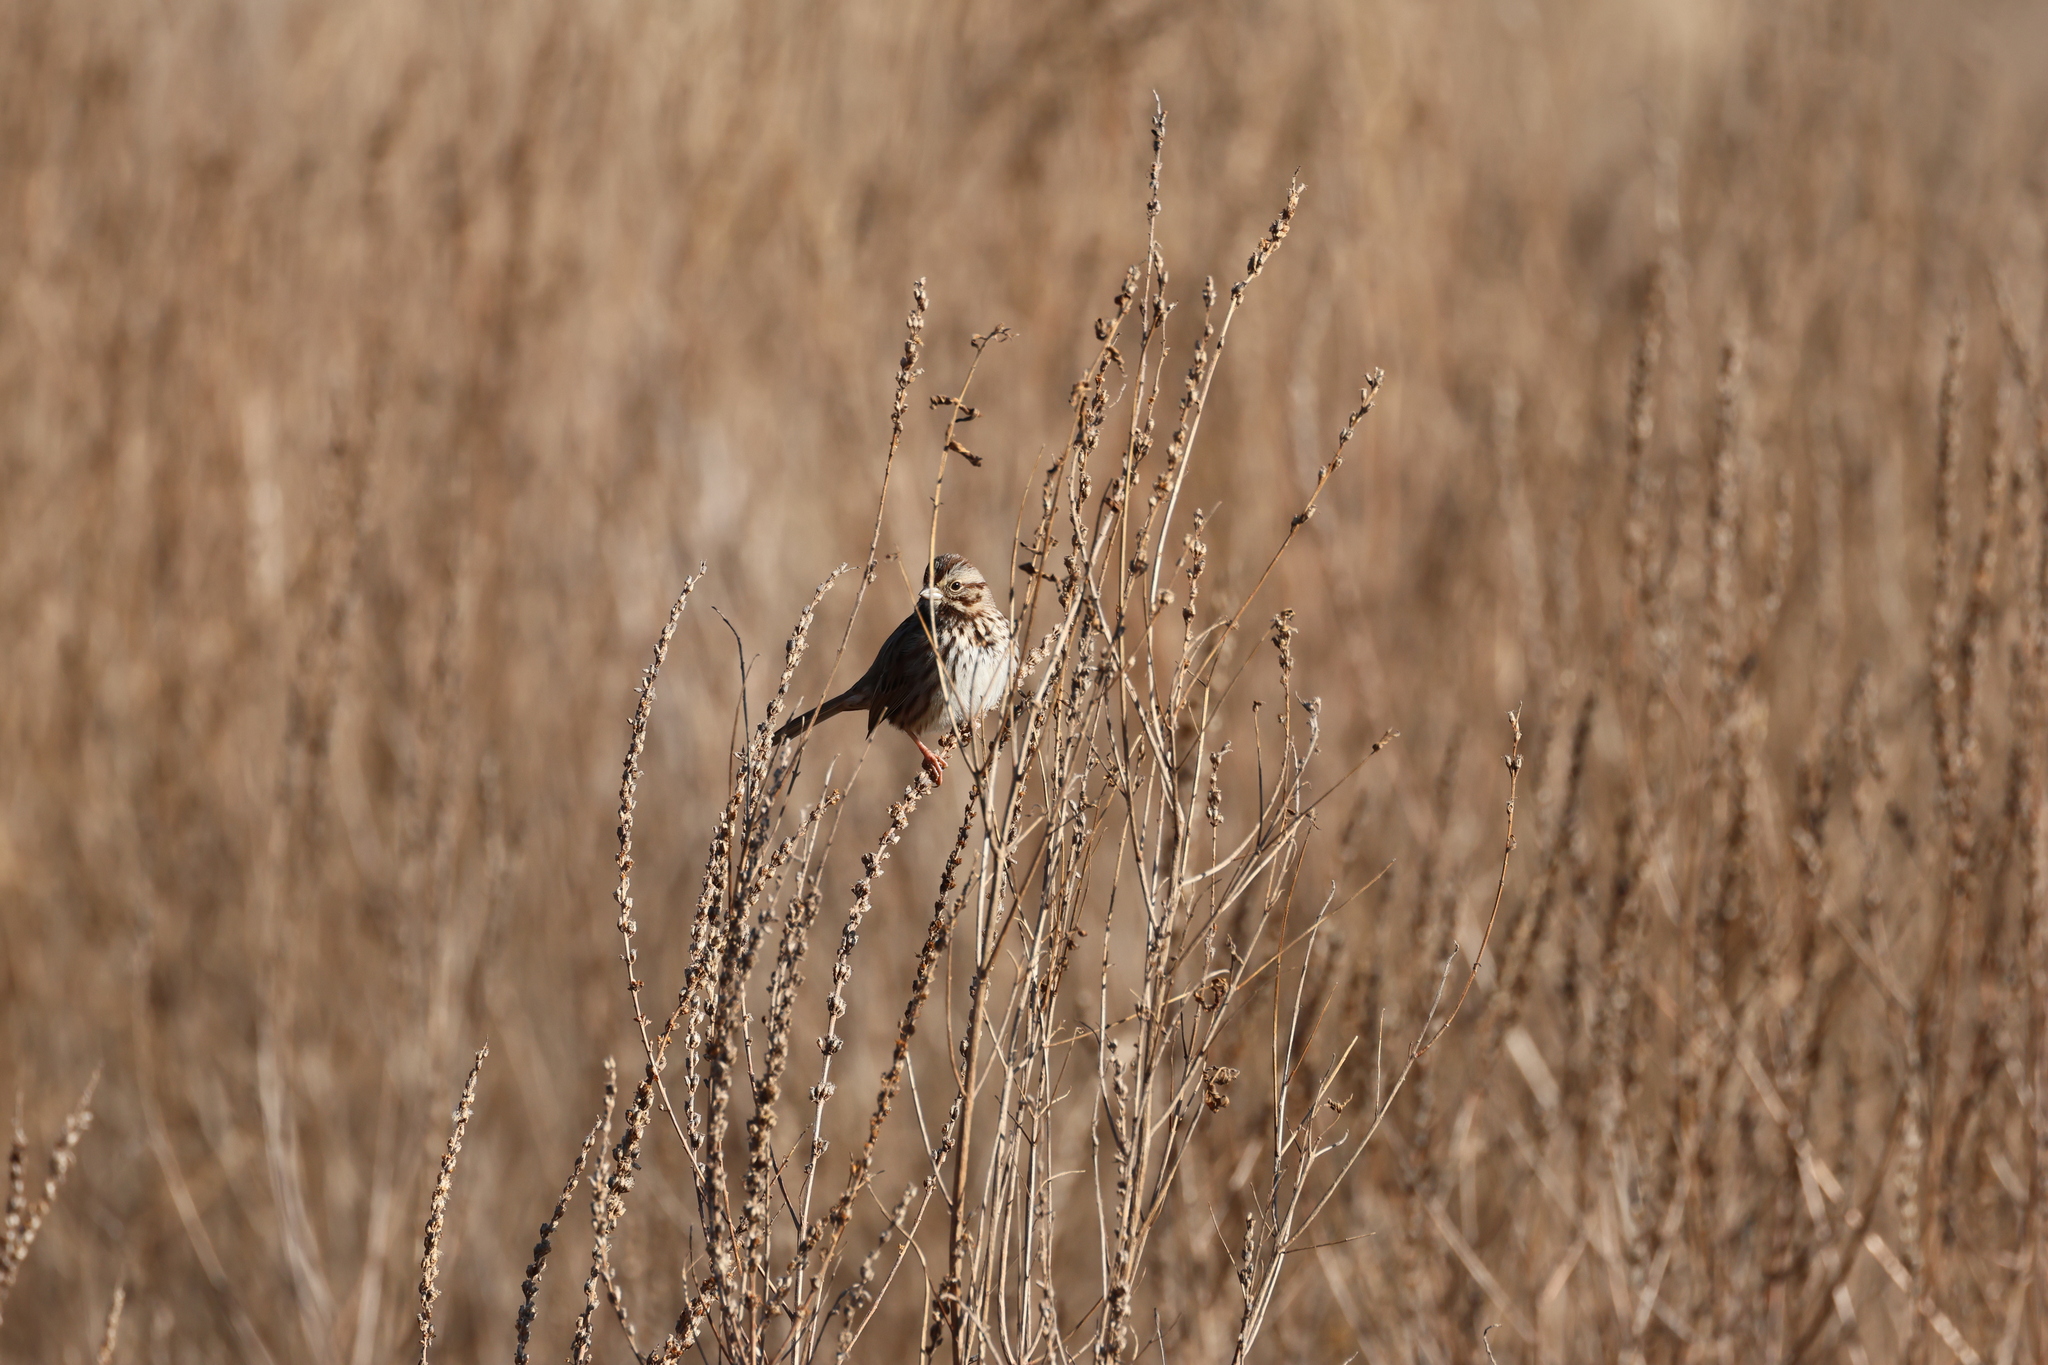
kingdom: Animalia
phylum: Chordata
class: Aves
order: Passeriformes
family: Passerellidae
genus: Melospiza
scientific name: Melospiza melodia
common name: Song sparrow
